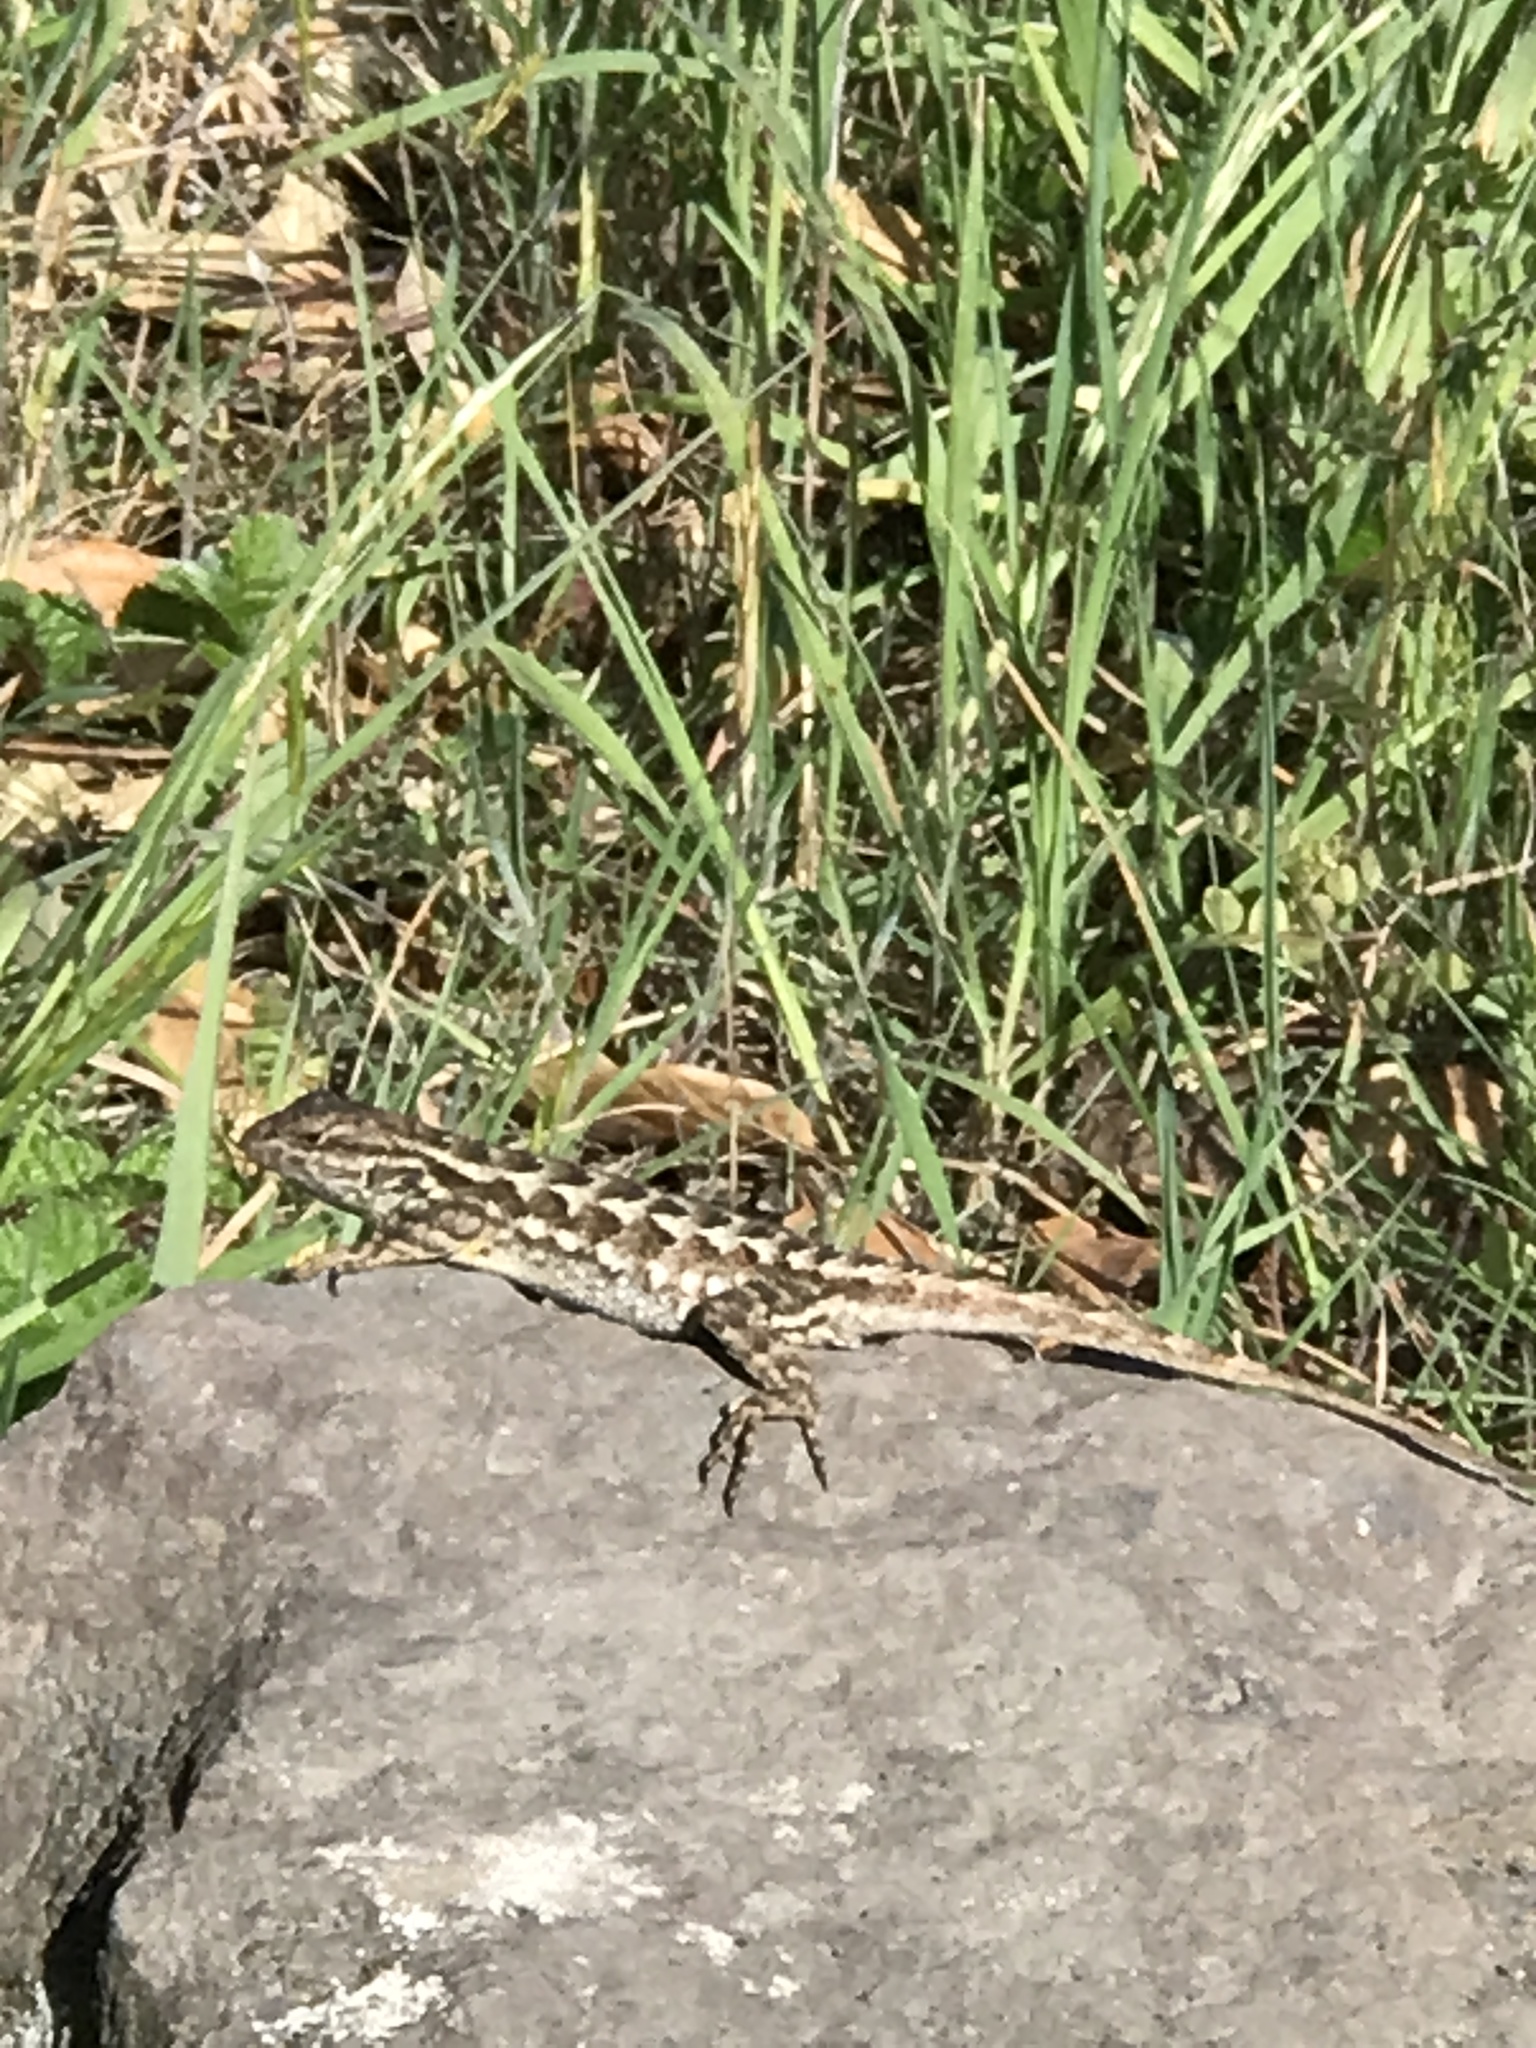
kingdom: Animalia
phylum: Chordata
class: Squamata
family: Phrynosomatidae
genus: Sceloporus
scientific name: Sceloporus occidentalis
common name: Western fence lizard
